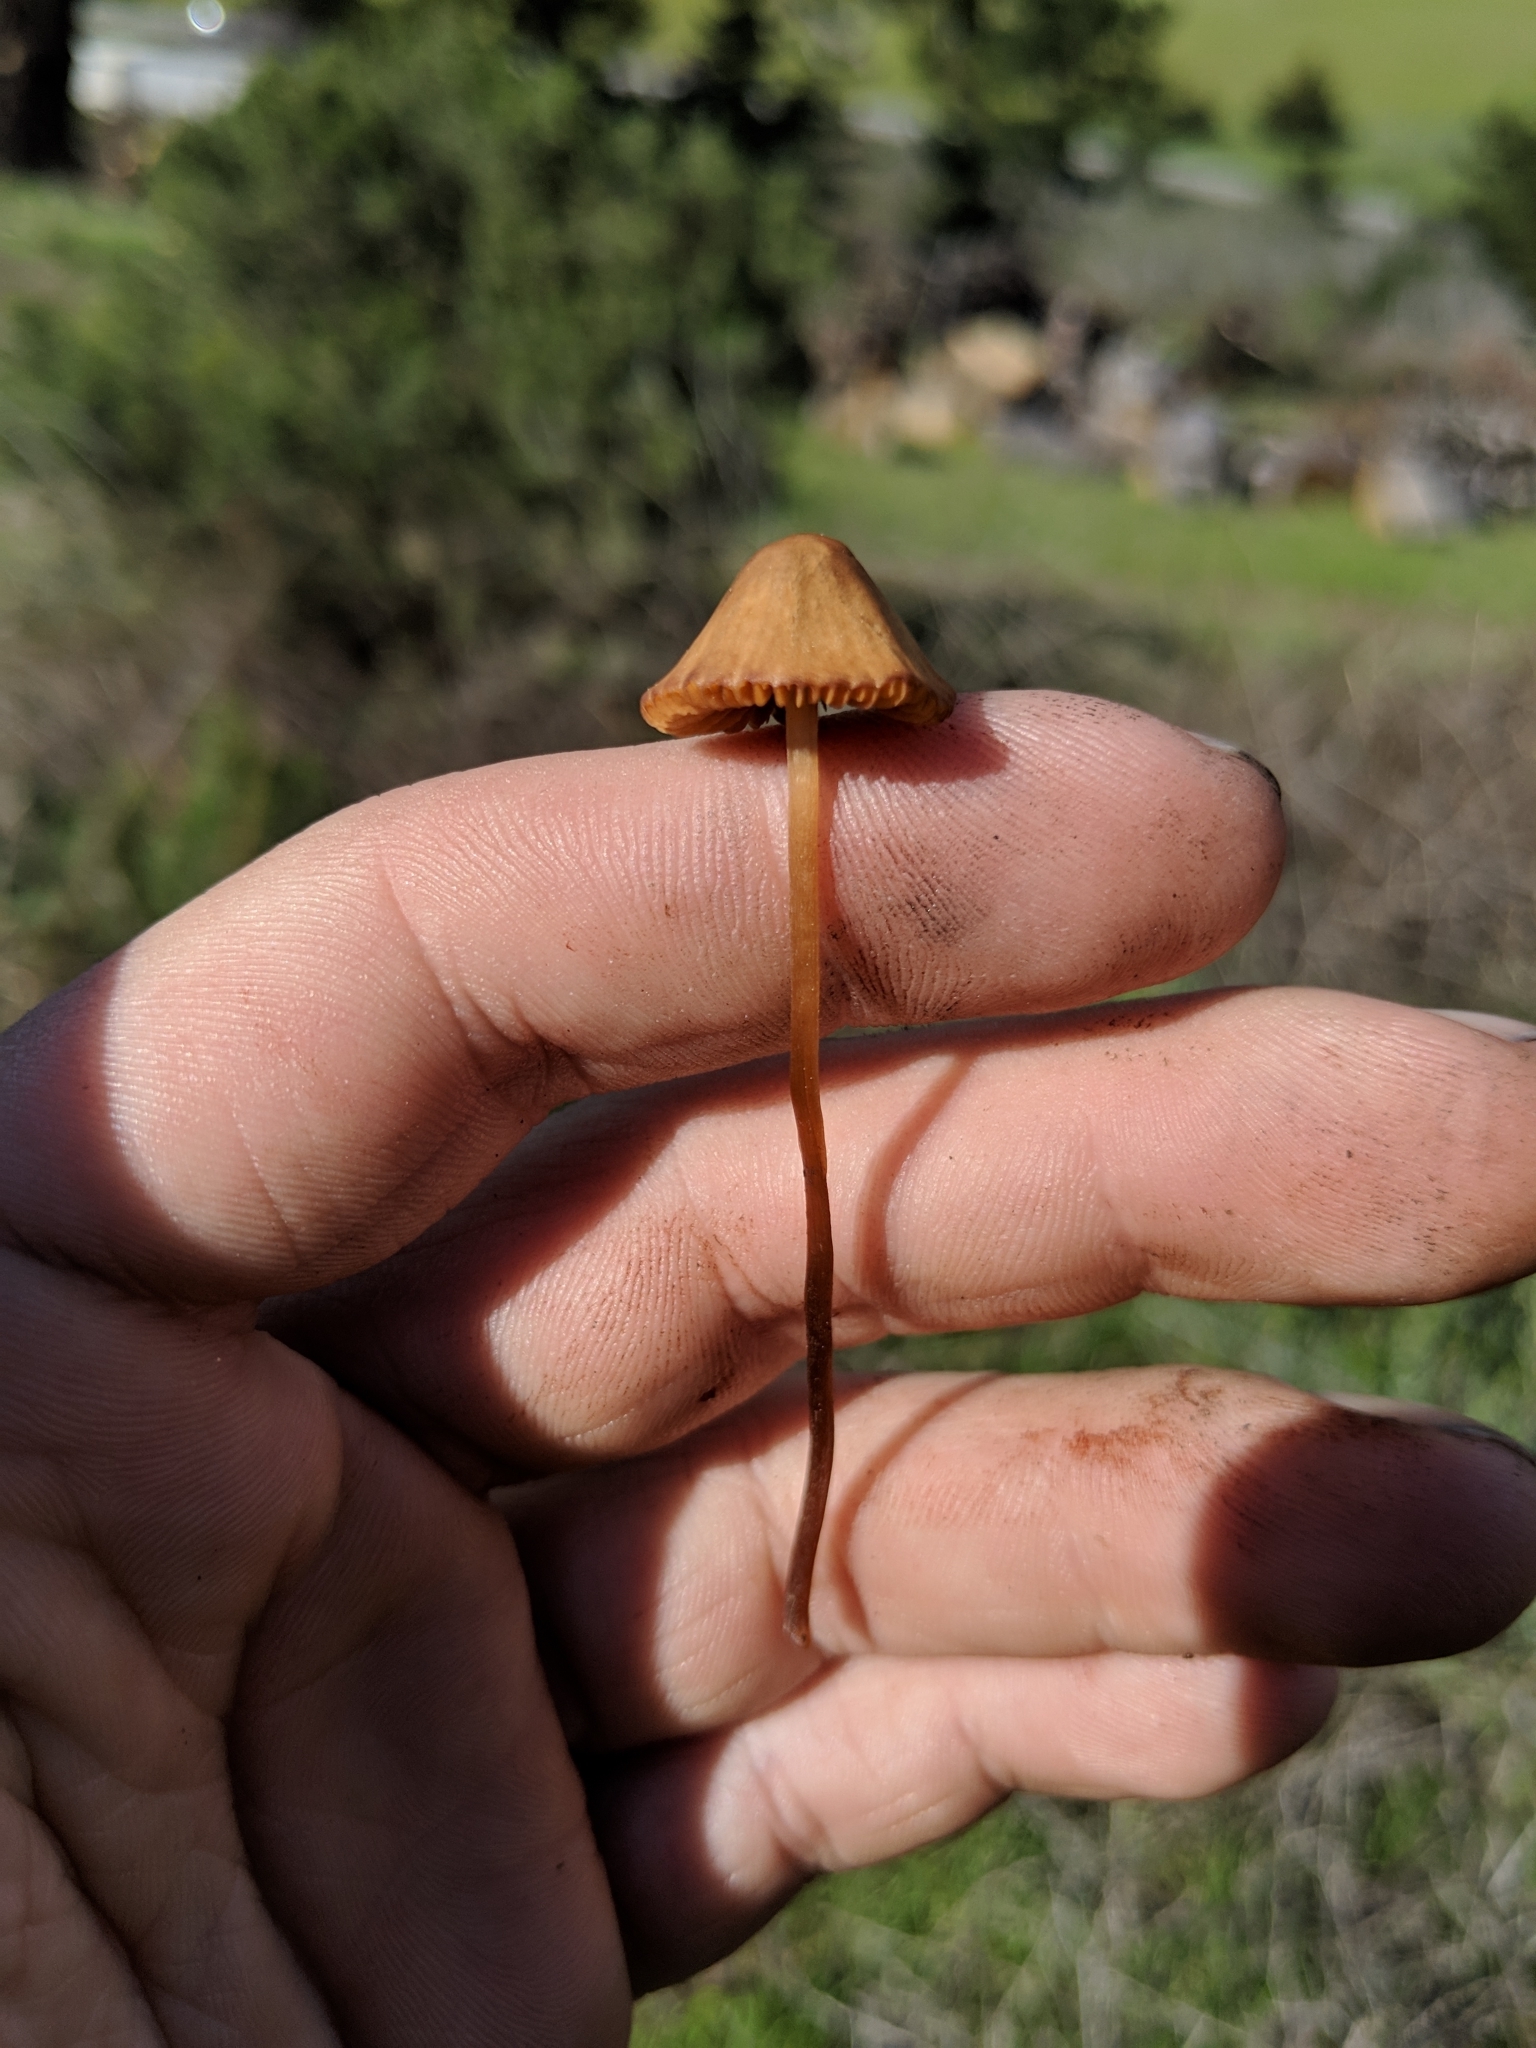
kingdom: Fungi
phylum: Basidiomycota
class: Agaricomycetes
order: Agaricales
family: Bolbitiaceae
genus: Conocybe
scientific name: Conocybe tenera
